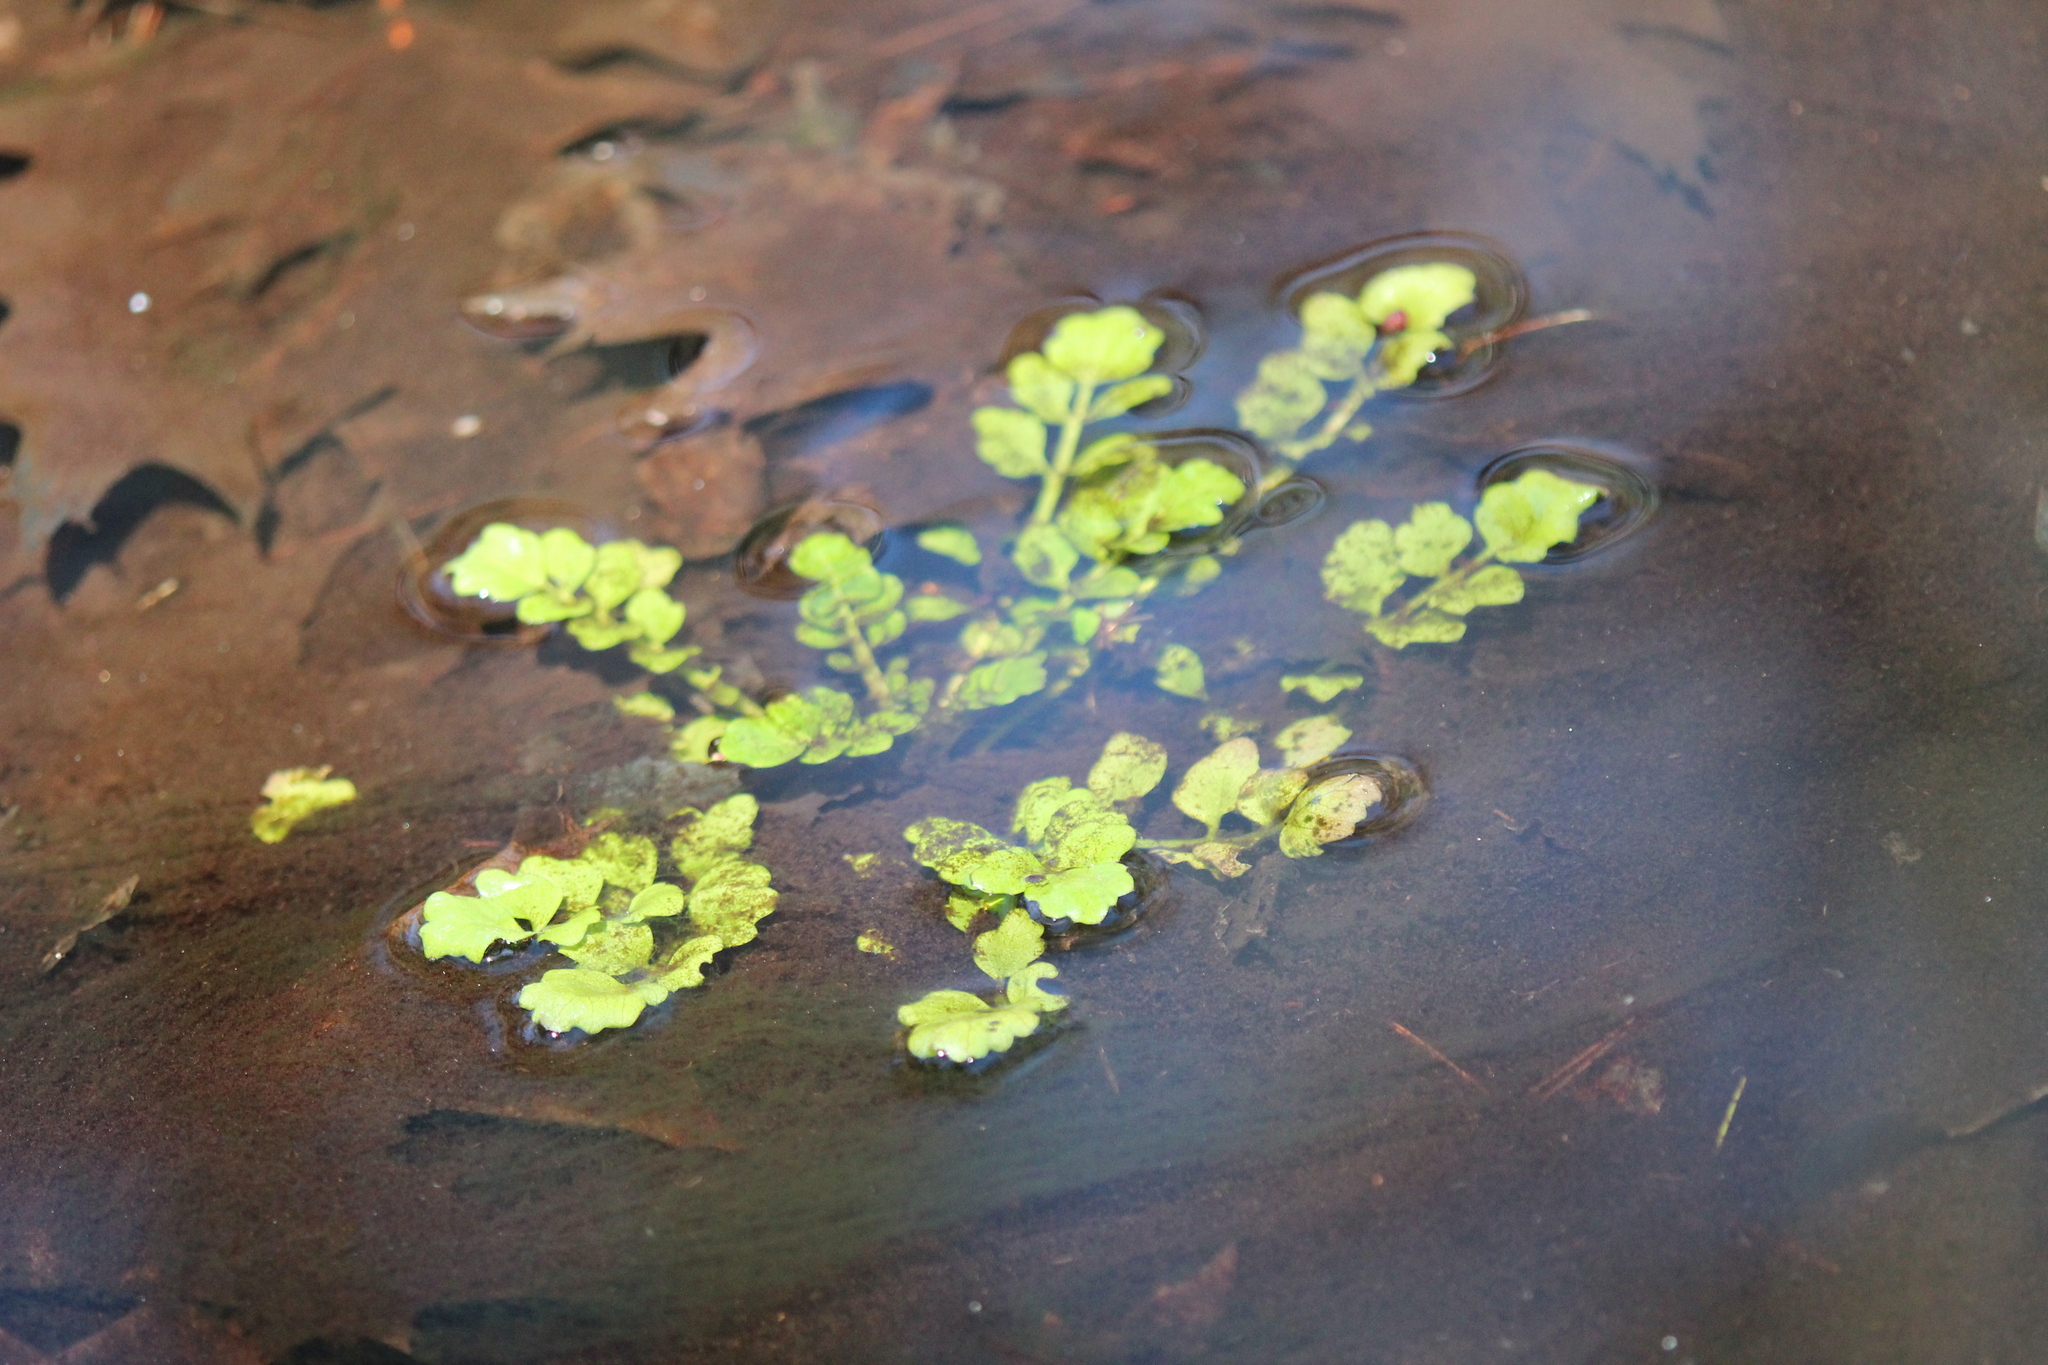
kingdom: Plantae
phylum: Tracheophyta
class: Magnoliopsida
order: Brassicales
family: Brassicaceae
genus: Cardamine
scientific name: Cardamine pensylvanica
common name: Pennsylvania bittercress
